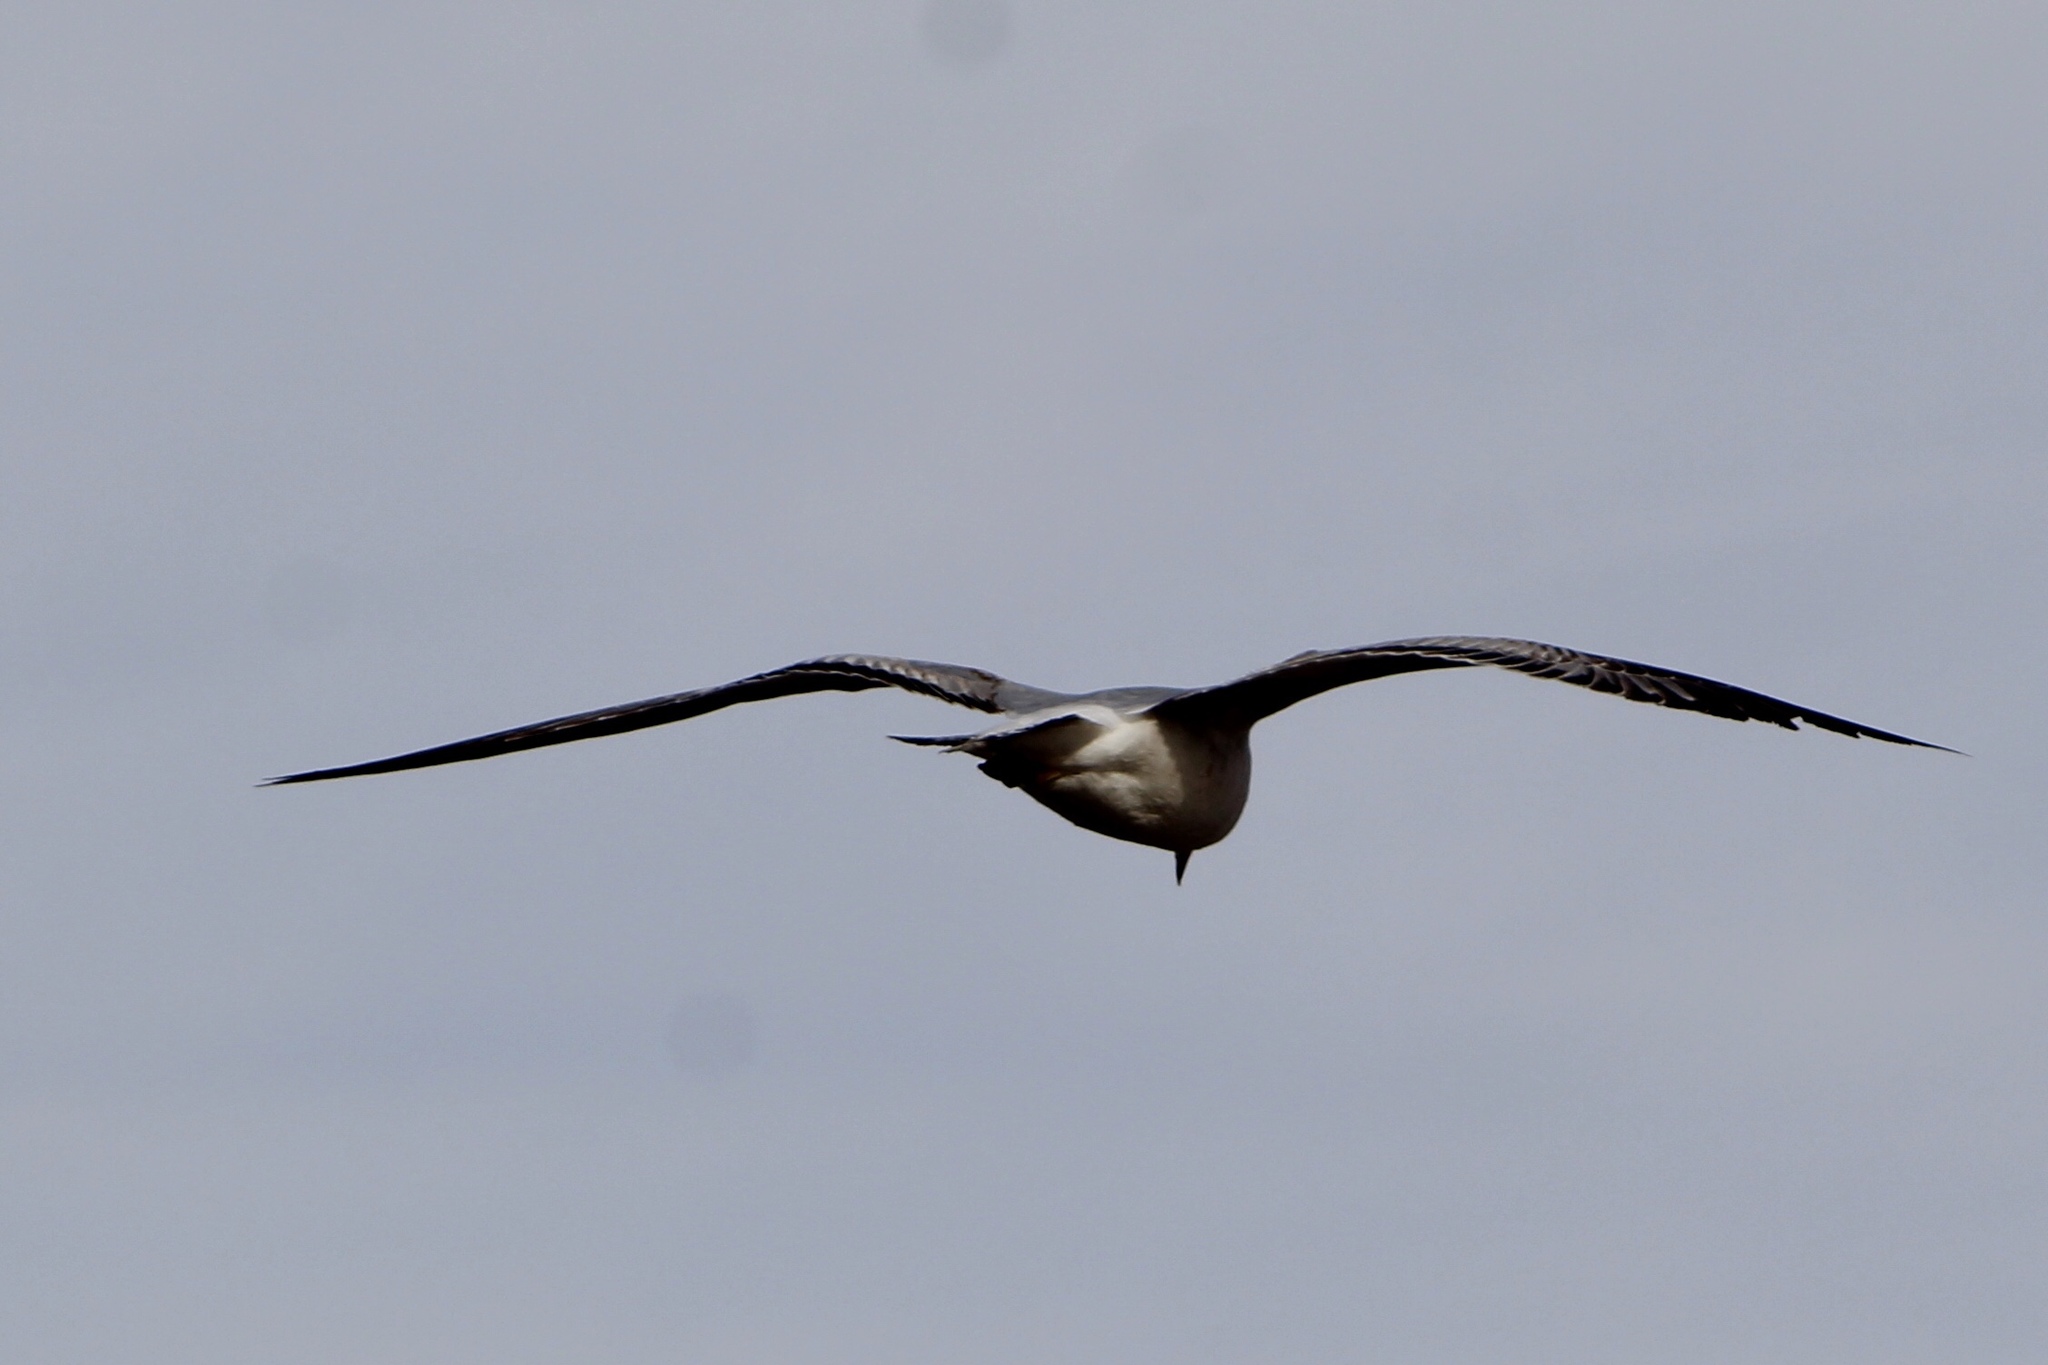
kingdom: Animalia
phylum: Chordata
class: Aves
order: Charadriiformes
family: Laridae
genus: Larus
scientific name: Larus delawarensis
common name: Ring-billed gull
